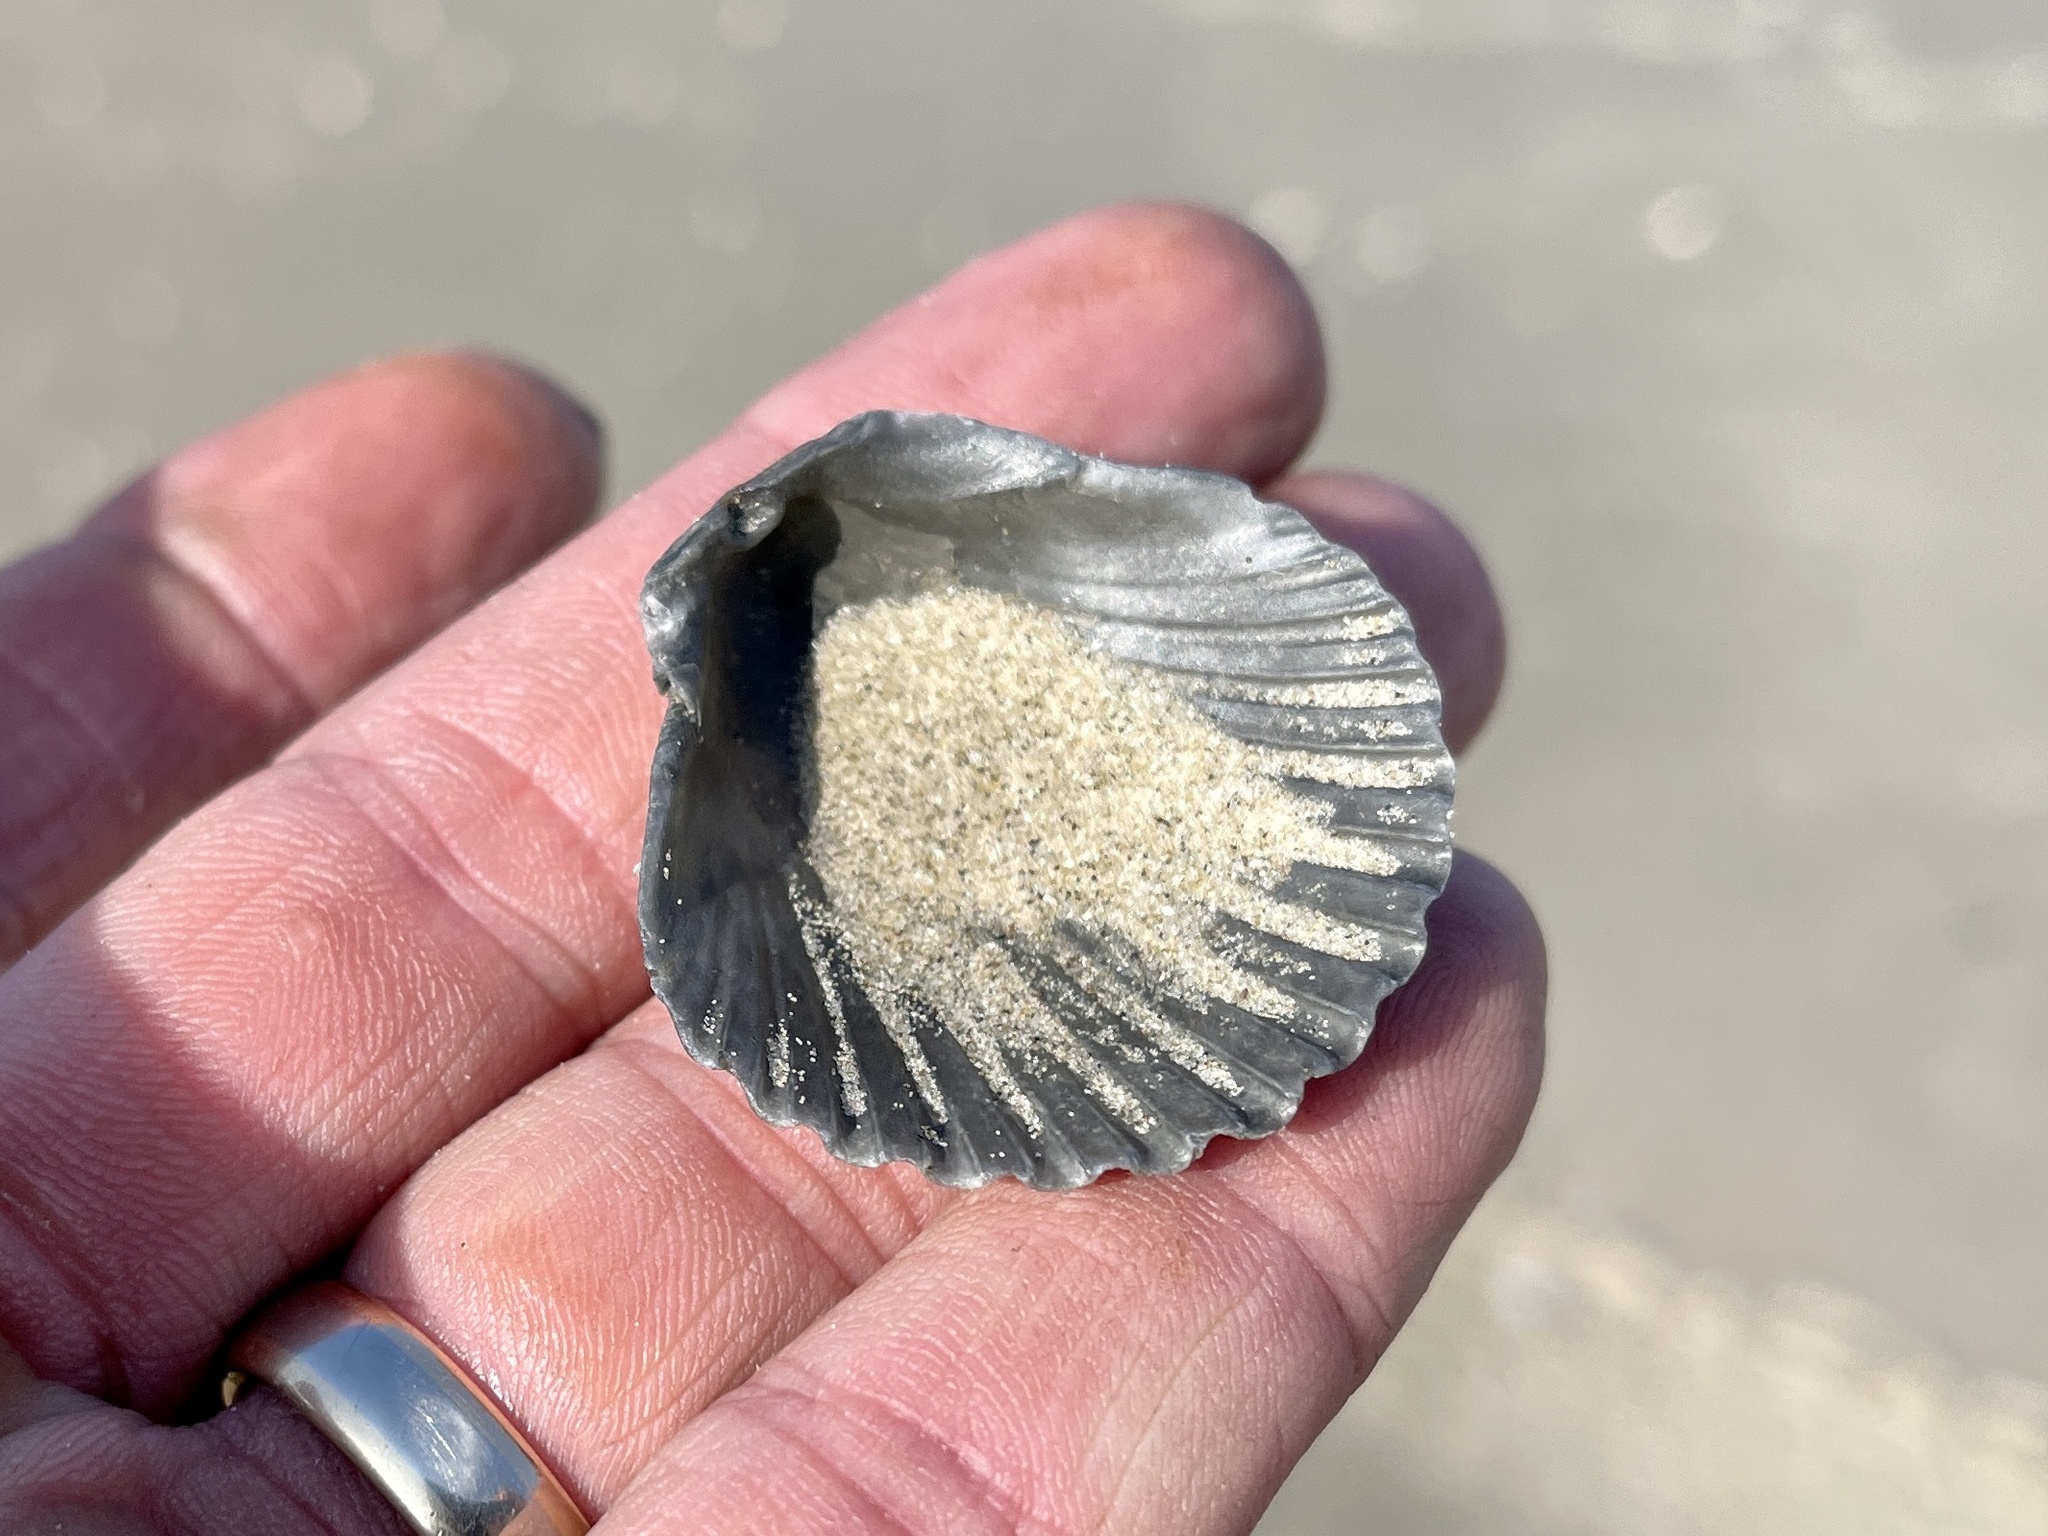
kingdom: Animalia
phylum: Mollusca
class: Bivalvia
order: Pectinida
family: Pectinidae
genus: Argopecten
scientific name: Argopecten irradians
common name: Atlantic bay scallop
